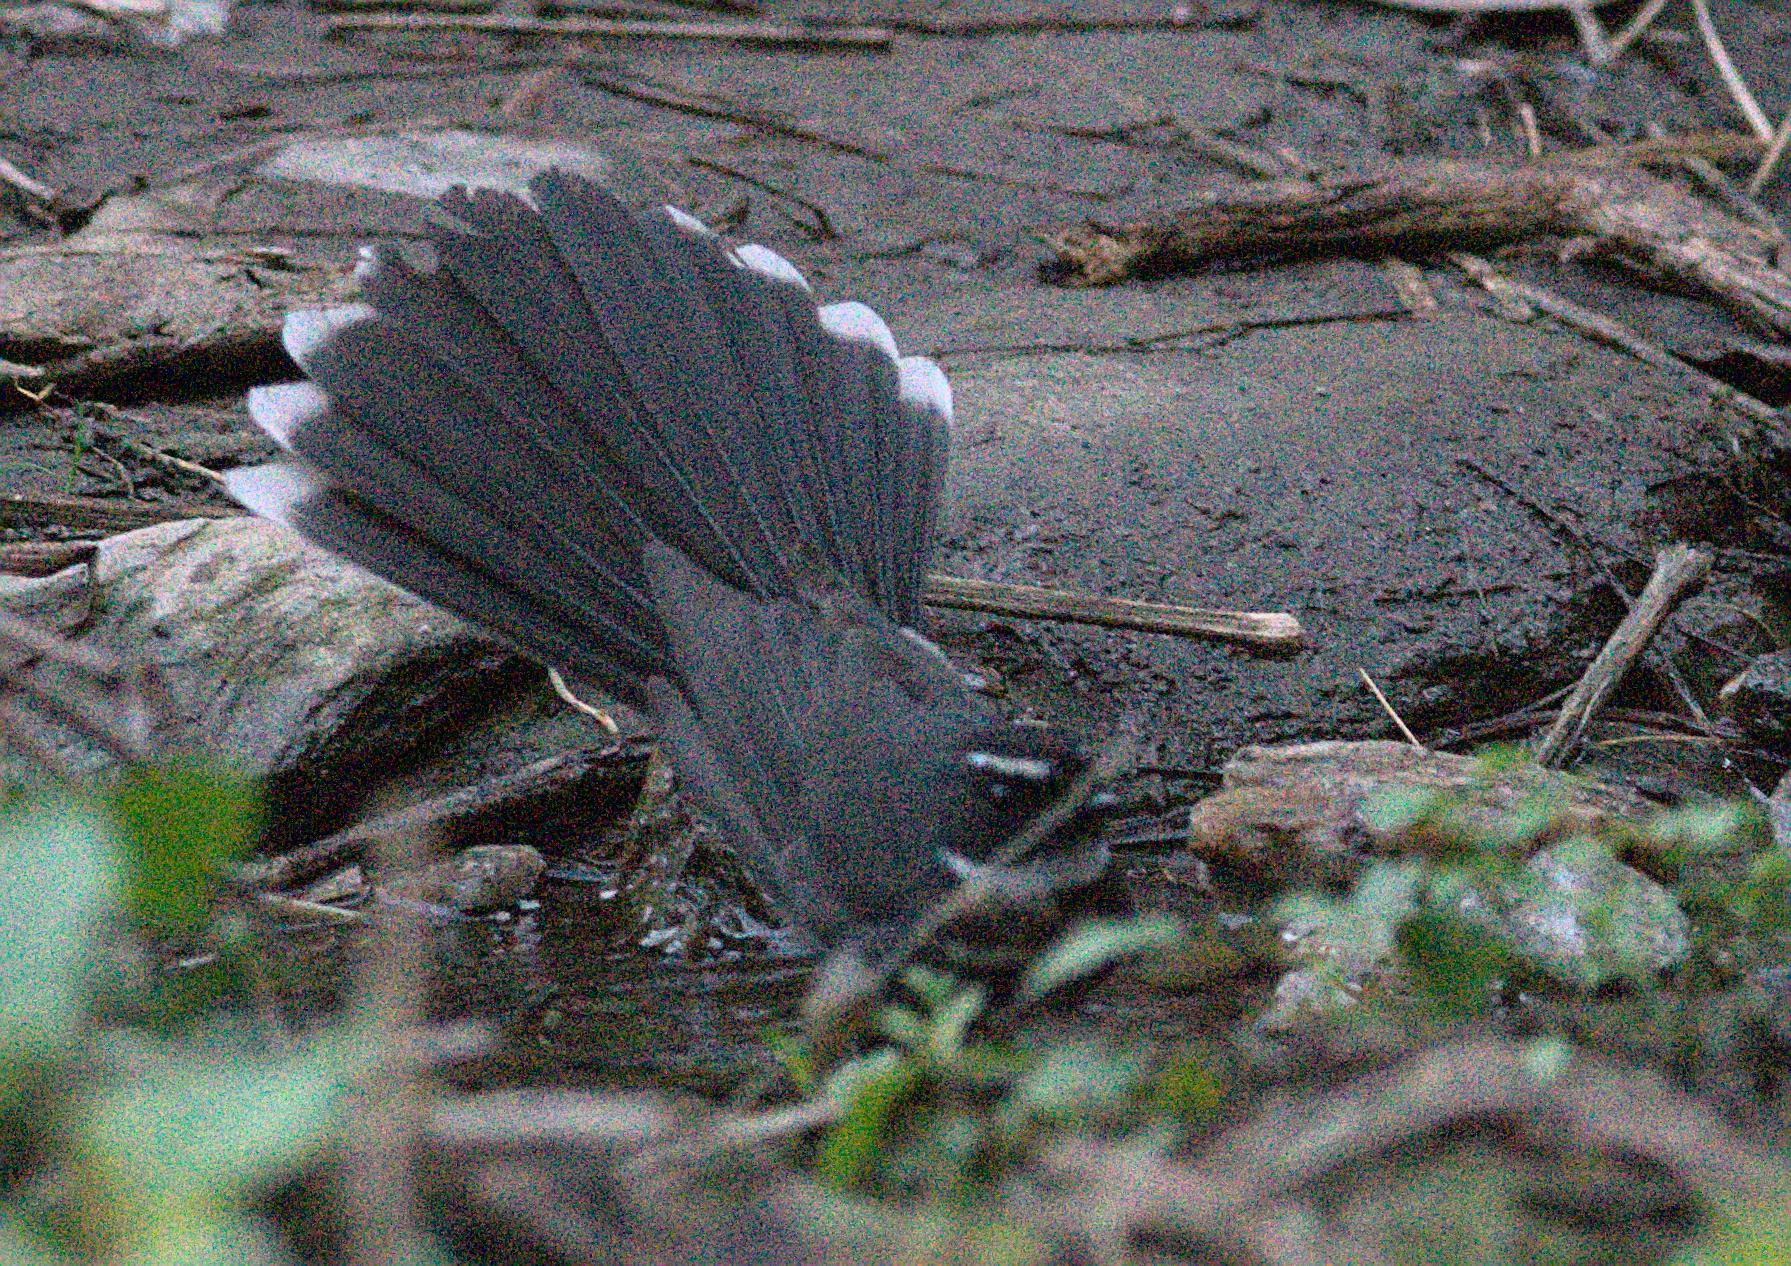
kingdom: Animalia
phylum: Chordata
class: Aves
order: Passeriformes
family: Rhipiduridae
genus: Rhipidura
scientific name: Rhipidura albicollis
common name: White-throated fantail
